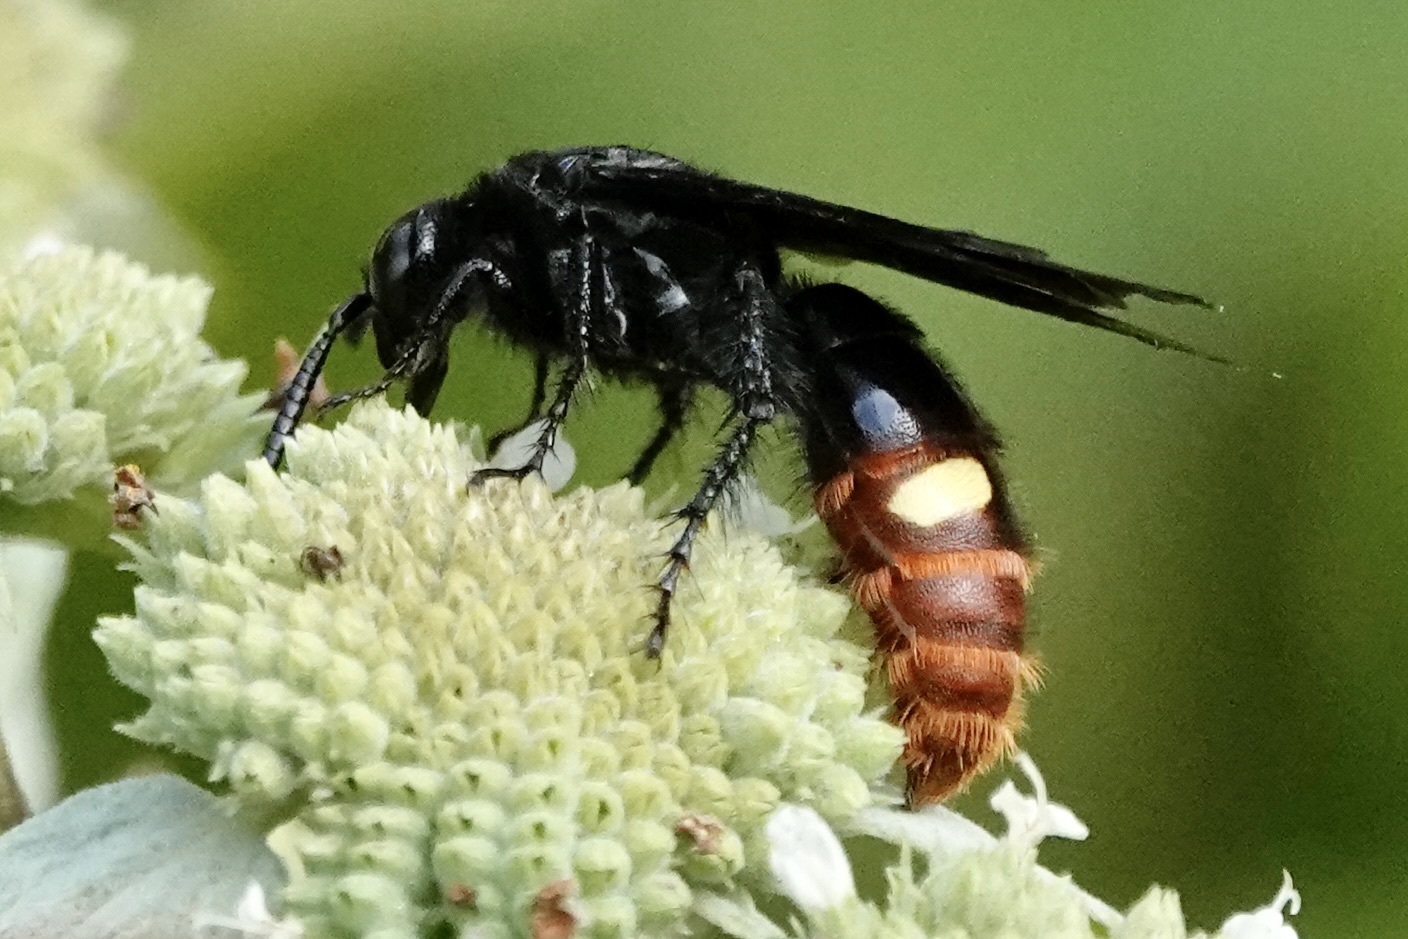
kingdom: Animalia
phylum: Arthropoda
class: Insecta
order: Hymenoptera
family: Scoliidae
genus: Scolia
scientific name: Scolia dubia
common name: Blue-winged scoliid wasp
